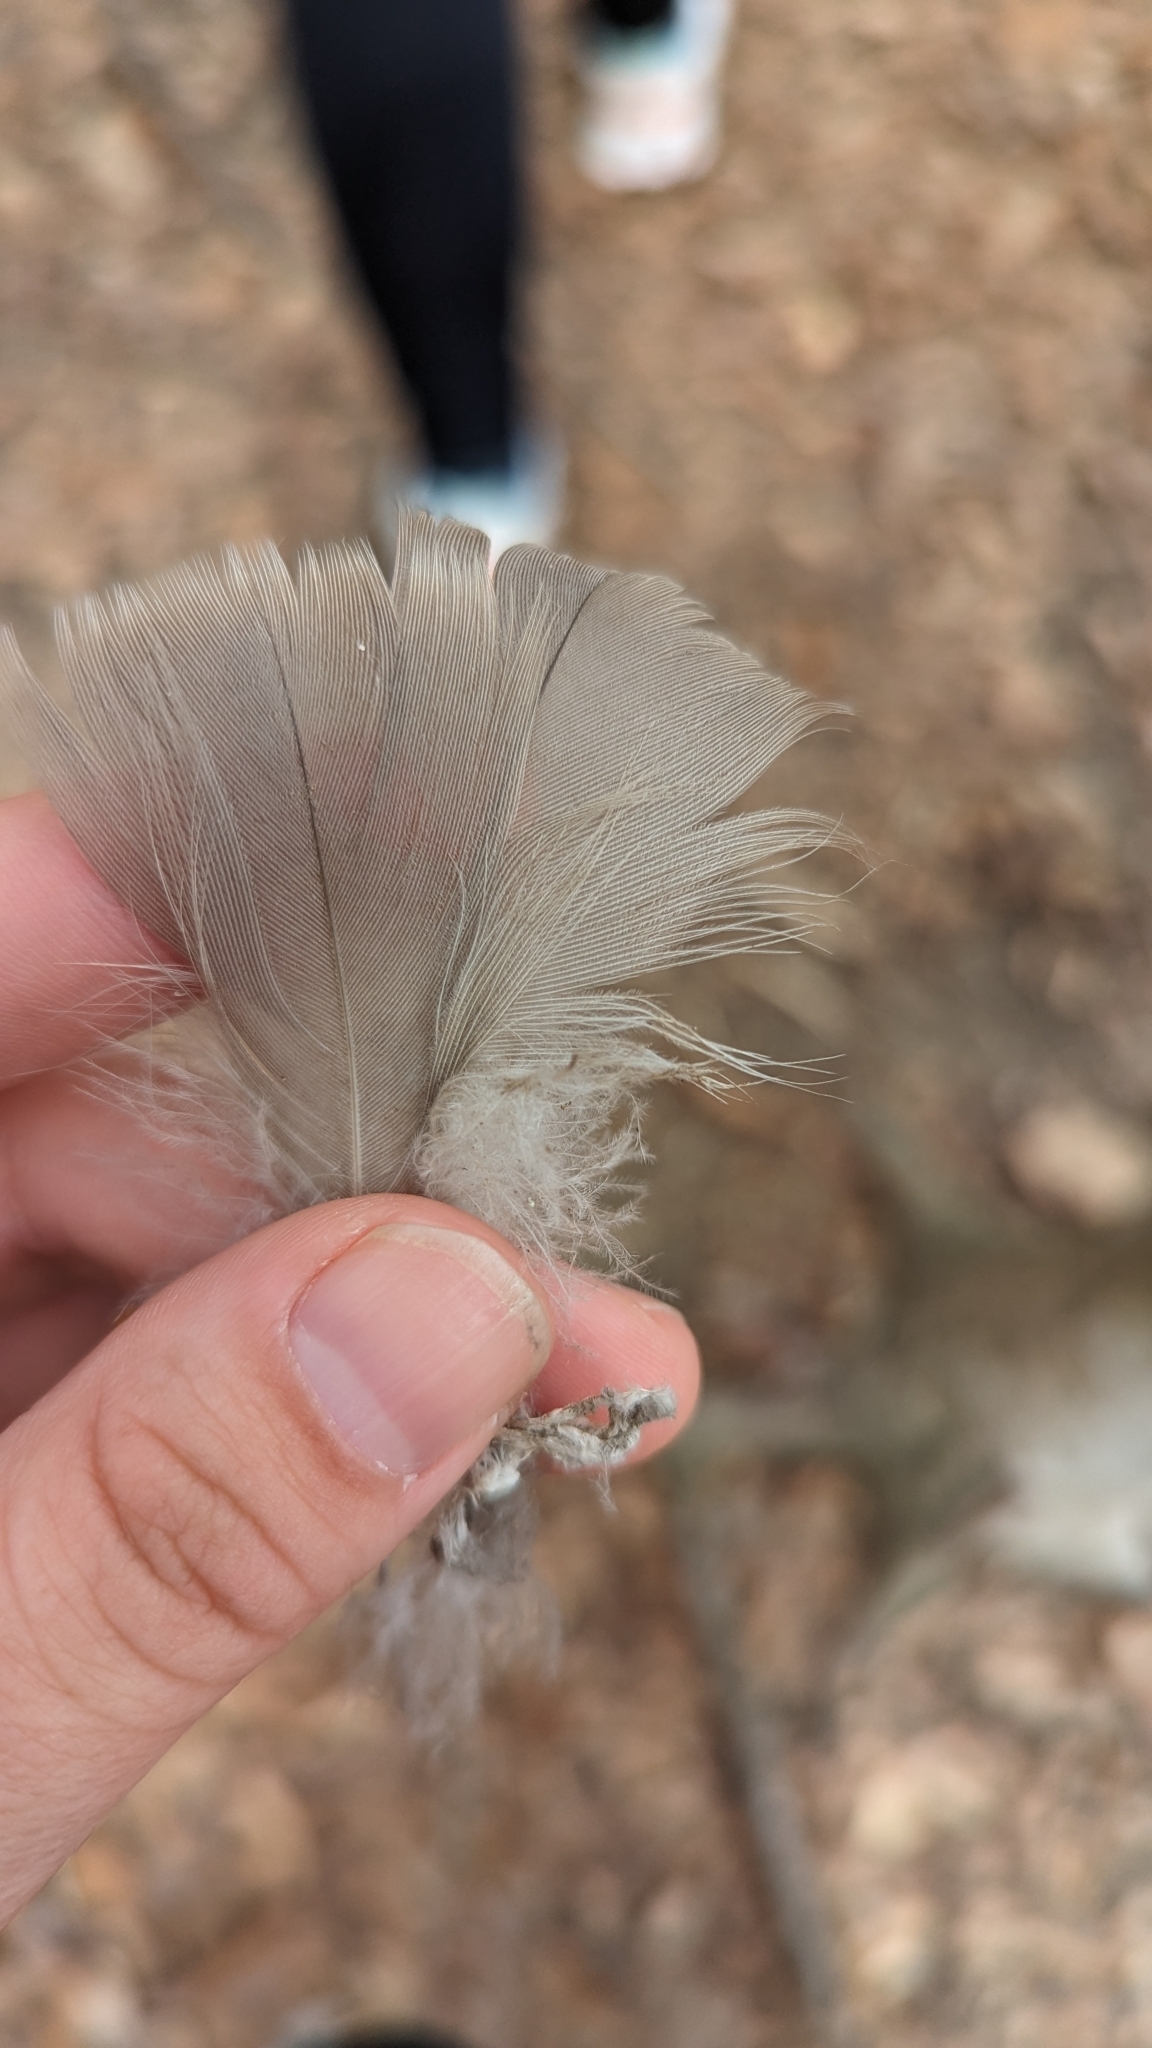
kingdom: Animalia
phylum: Chordata
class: Aves
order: Anseriformes
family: Anatidae
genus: Branta
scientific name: Branta canadensis
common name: Canada goose
